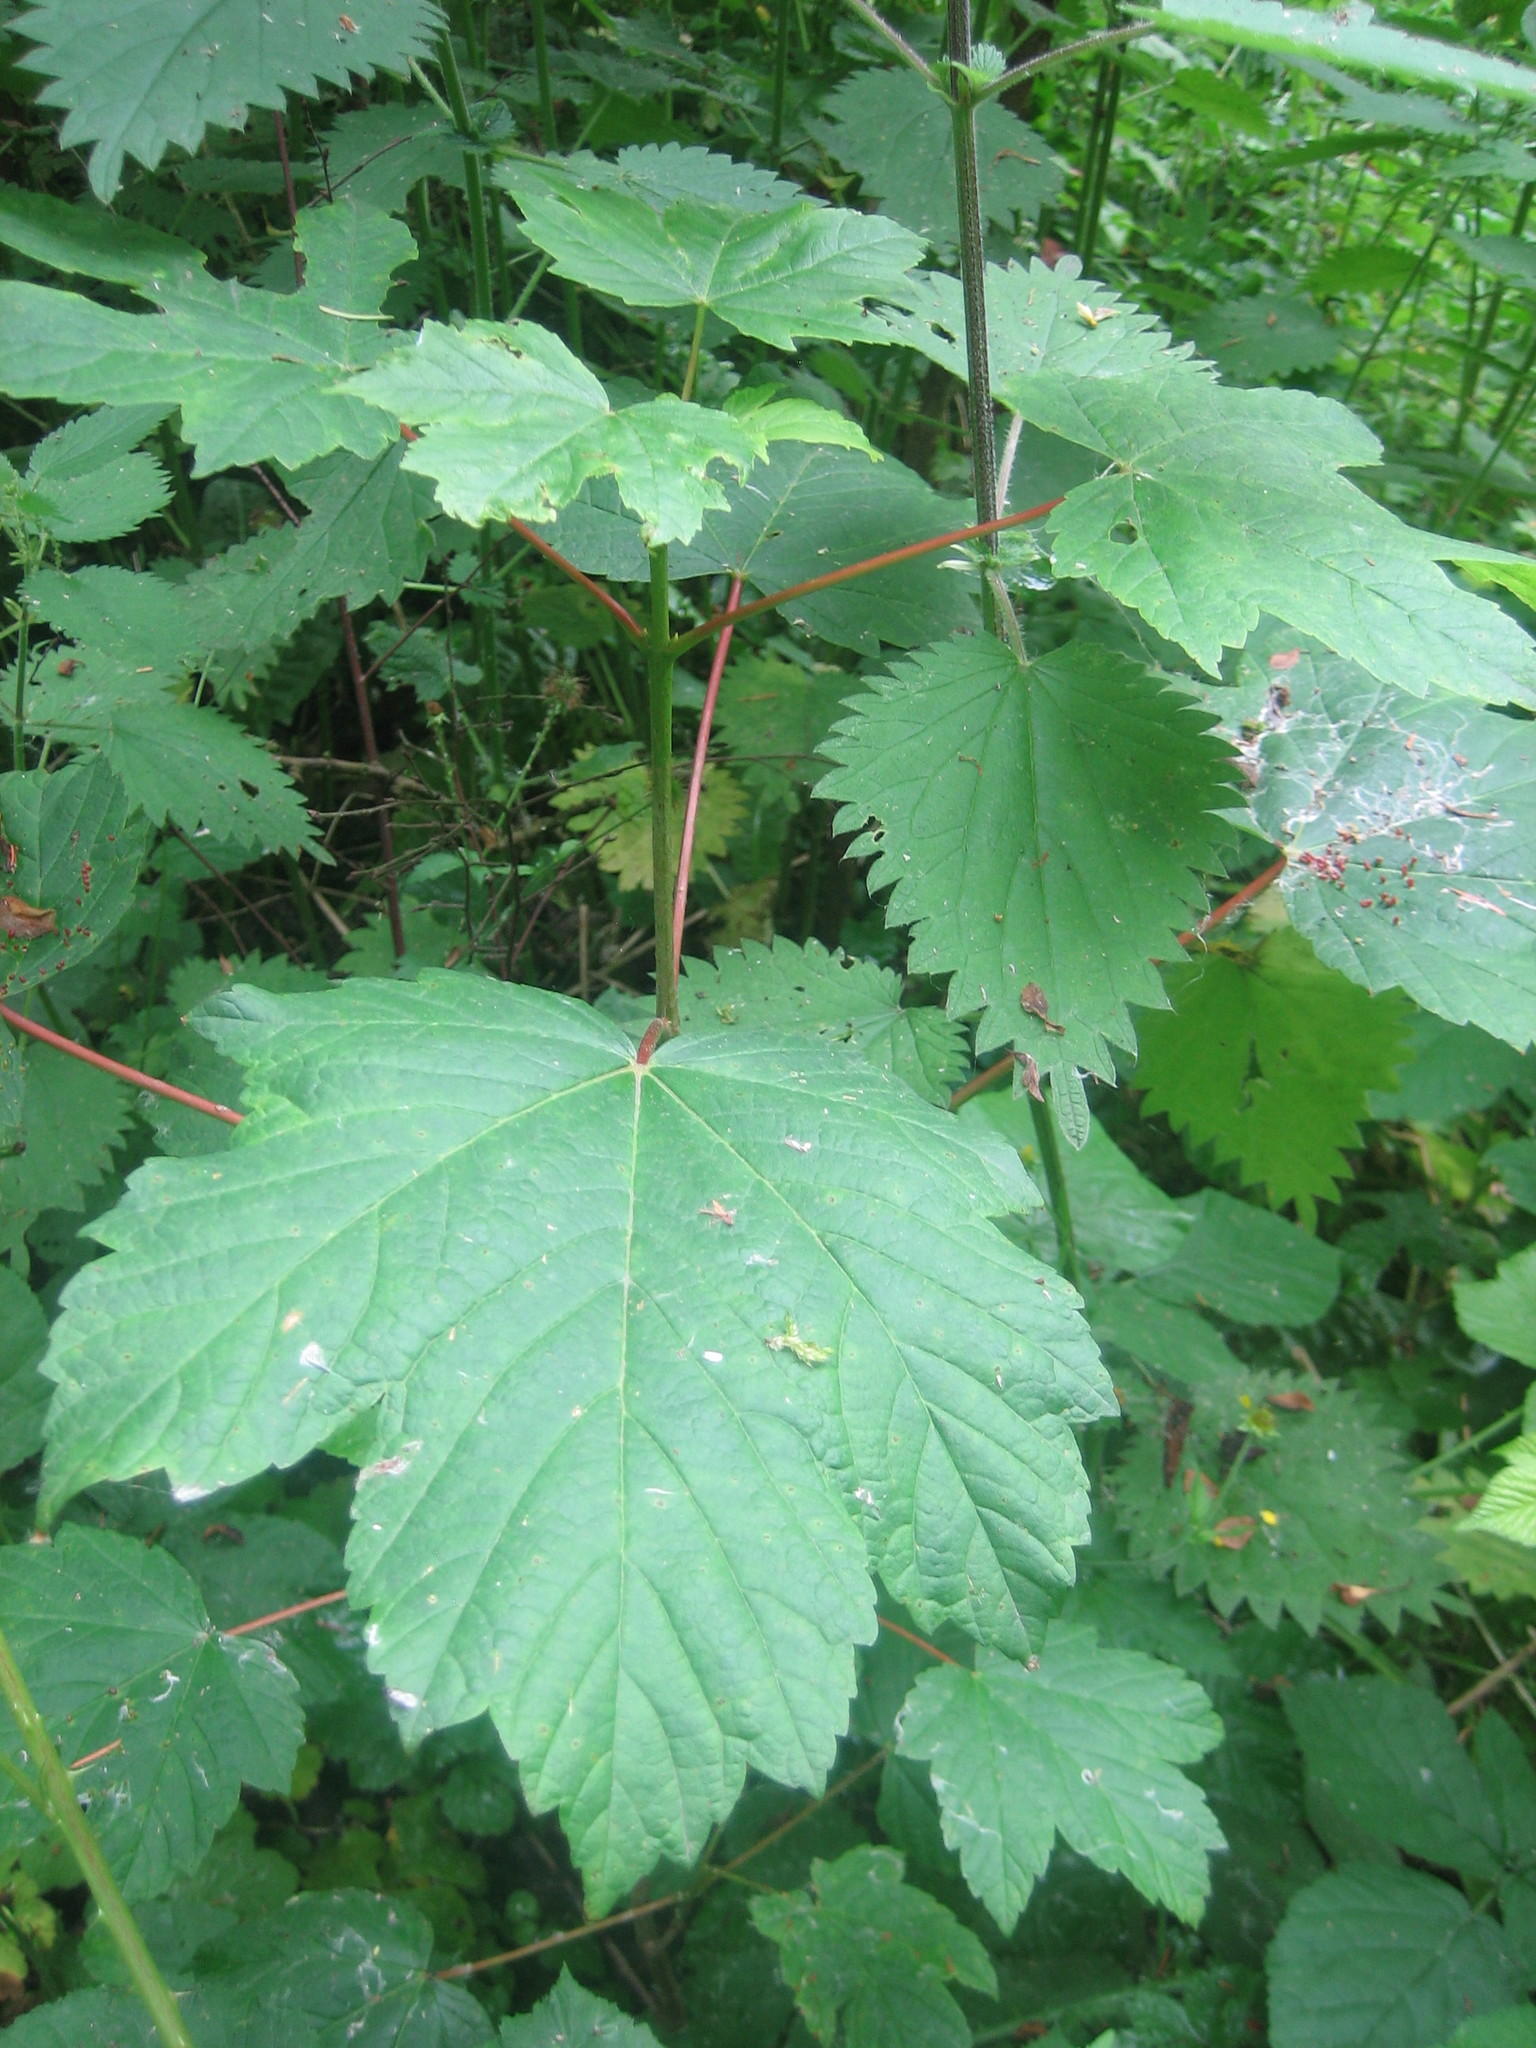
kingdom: Plantae
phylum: Tracheophyta
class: Magnoliopsida
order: Sapindales
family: Sapindaceae
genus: Acer
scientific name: Acer pseudoplatanus
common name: Sycamore
